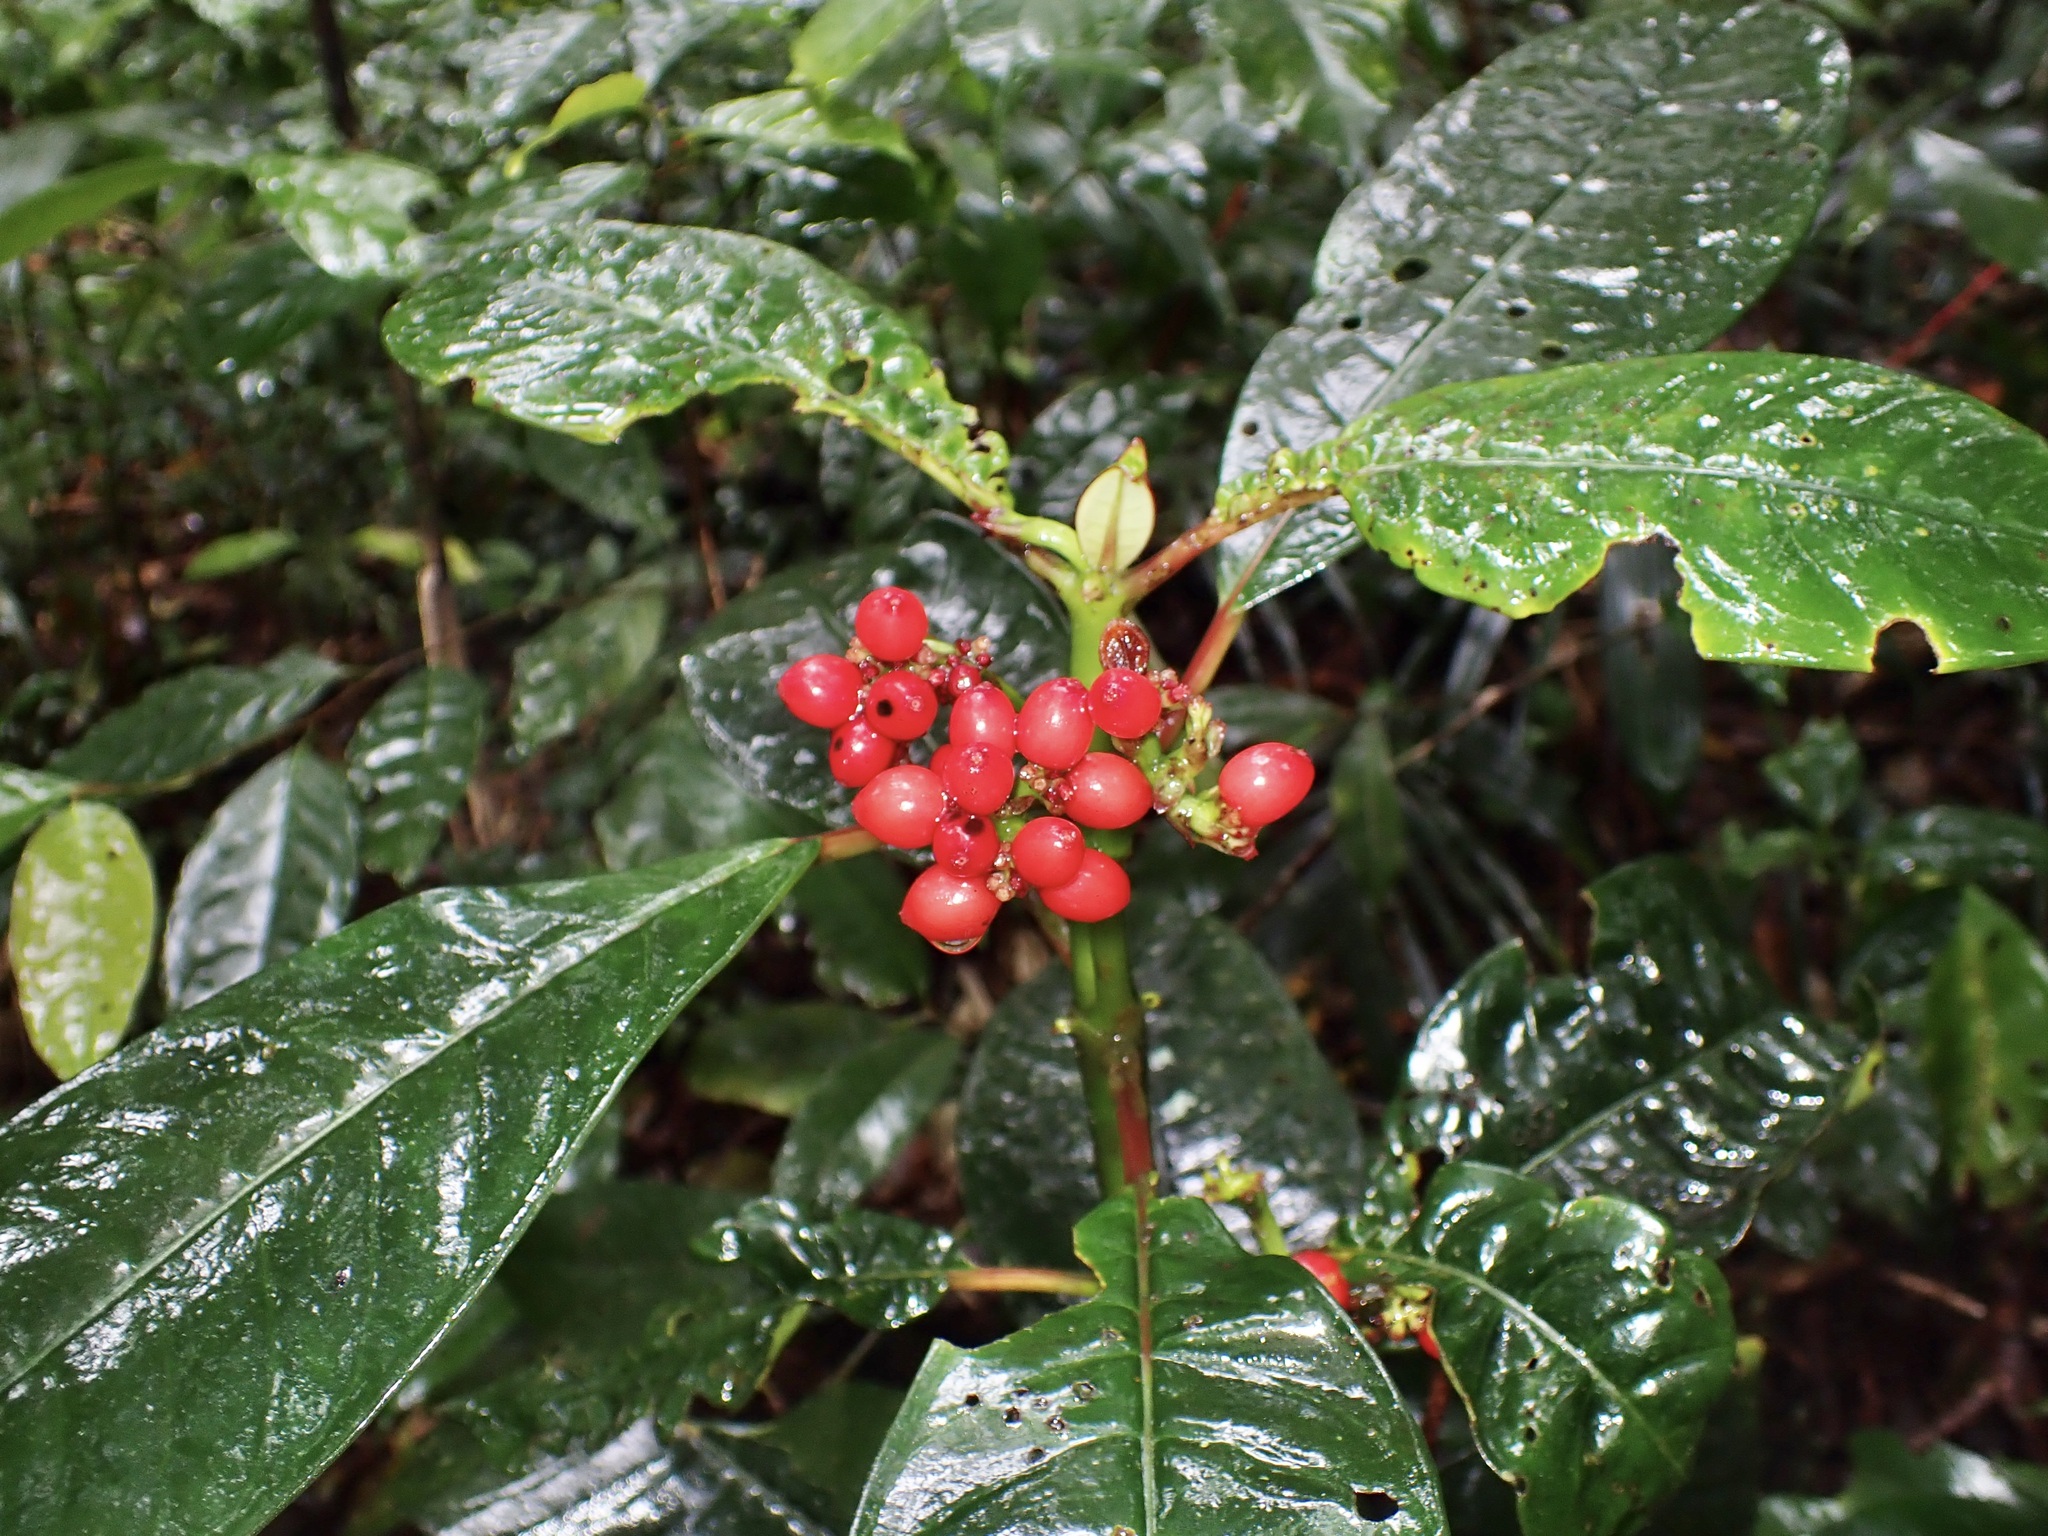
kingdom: Plantae
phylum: Tracheophyta
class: Magnoliopsida
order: Gentianales
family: Rubiaceae
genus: Notopleura
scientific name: Notopleura uliginosa
